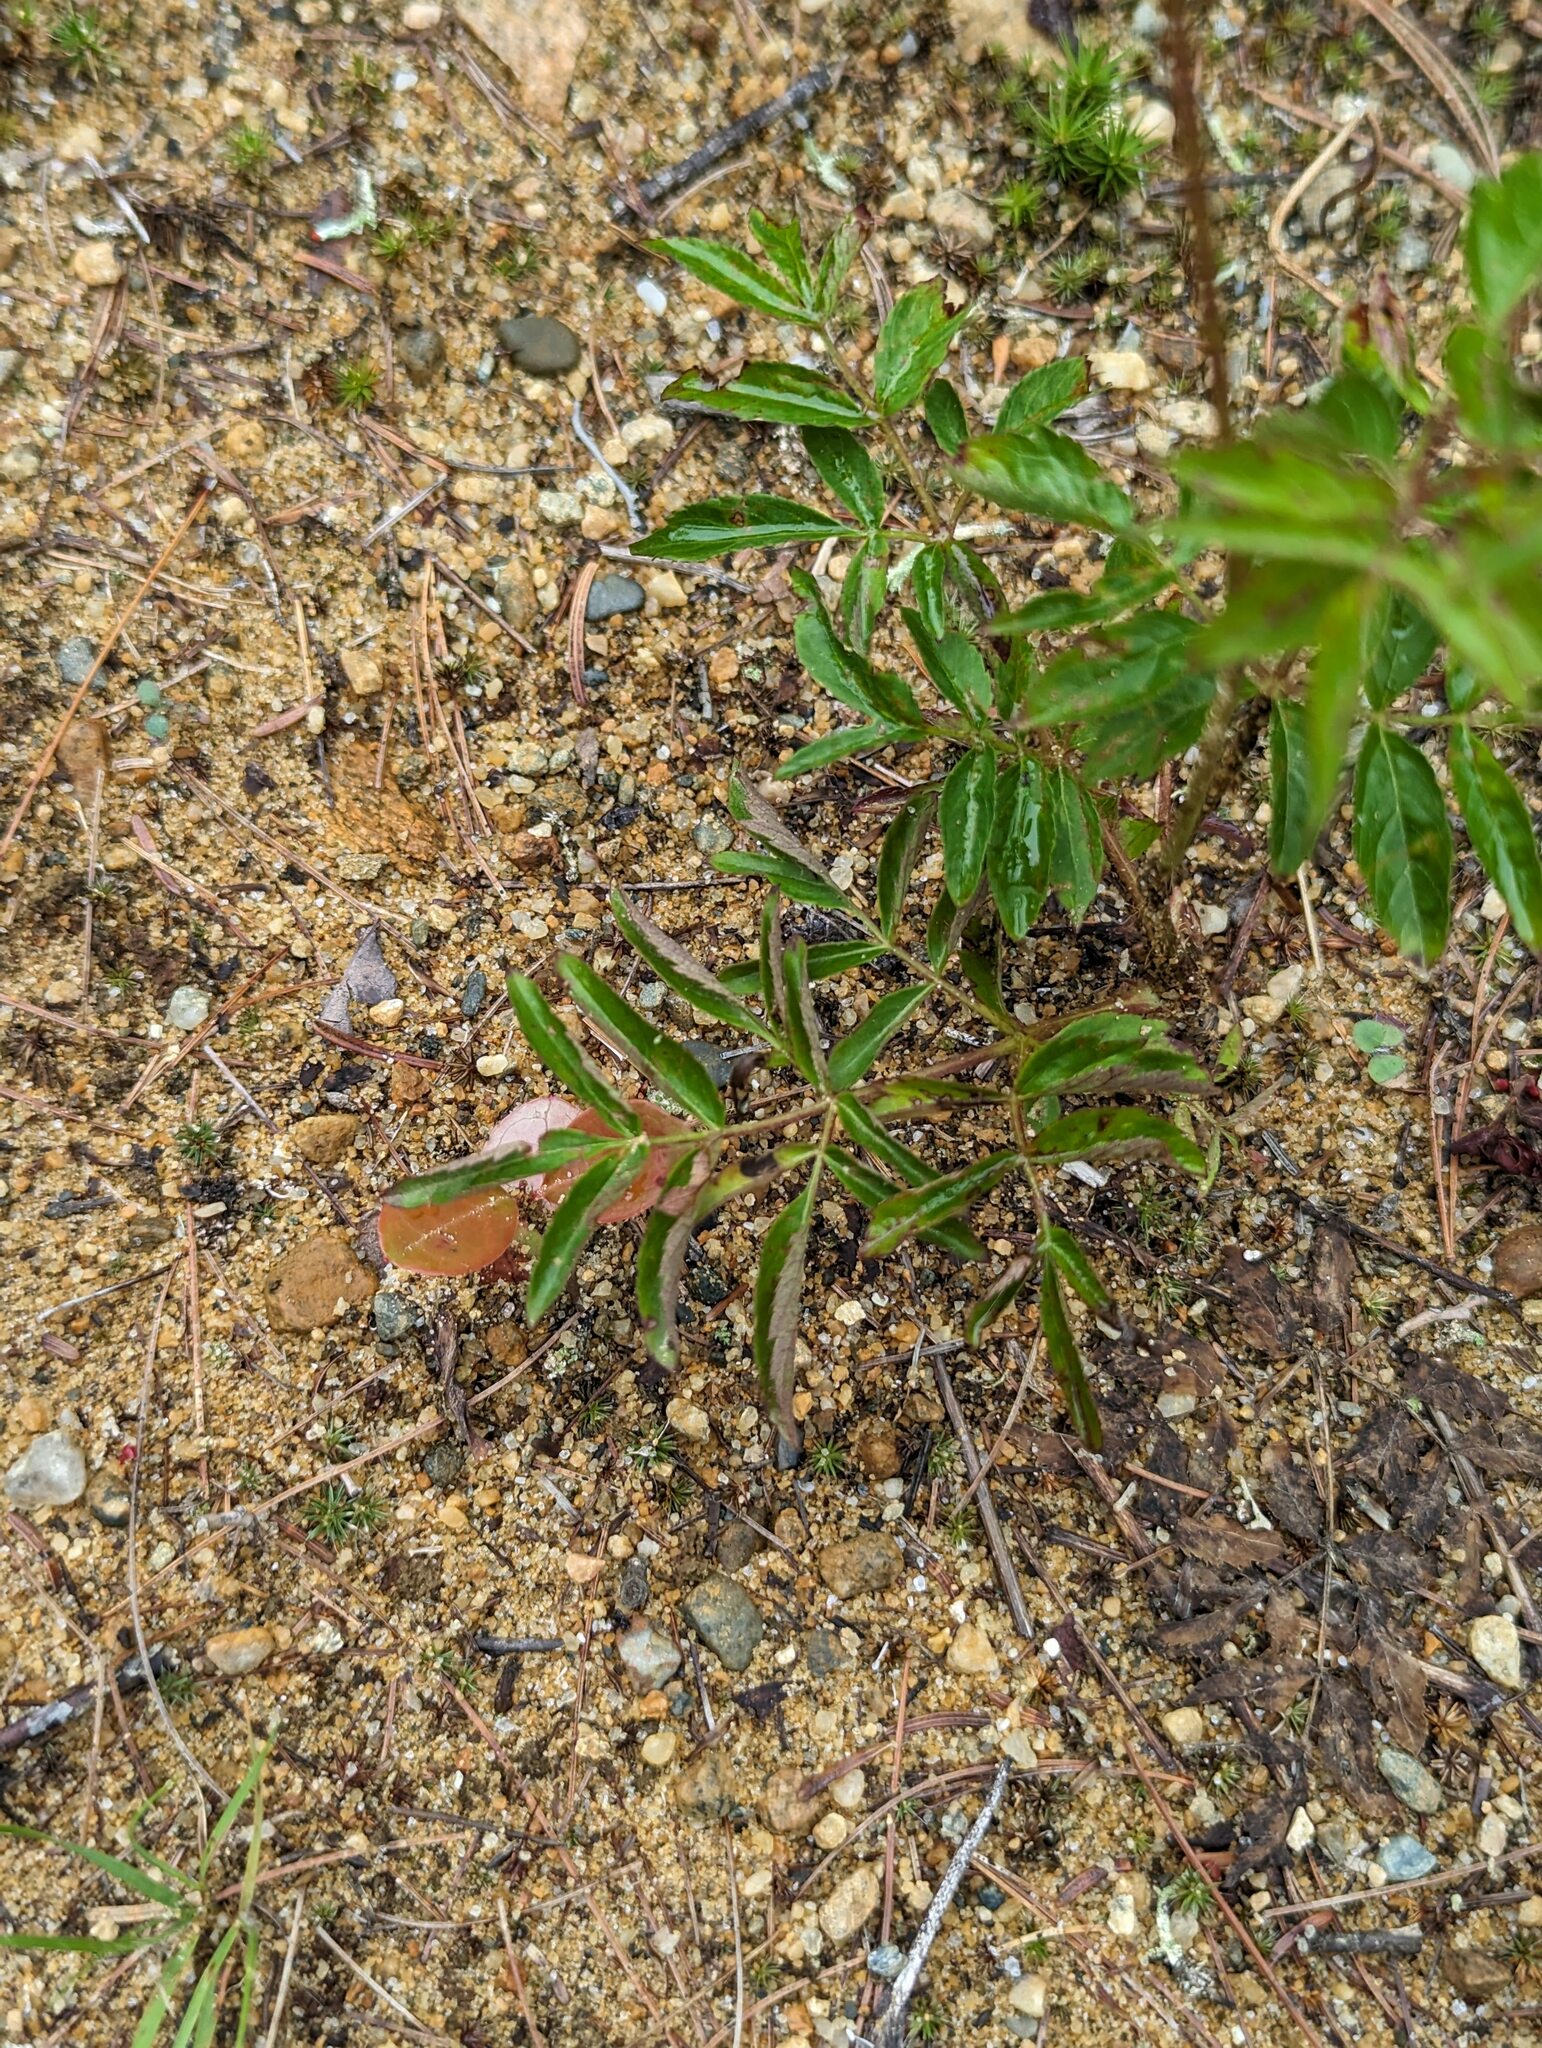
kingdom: Plantae
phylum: Tracheophyta
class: Magnoliopsida
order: Apiales
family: Araliaceae
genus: Aralia
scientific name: Aralia hispida
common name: Bristly sarsaparilla
